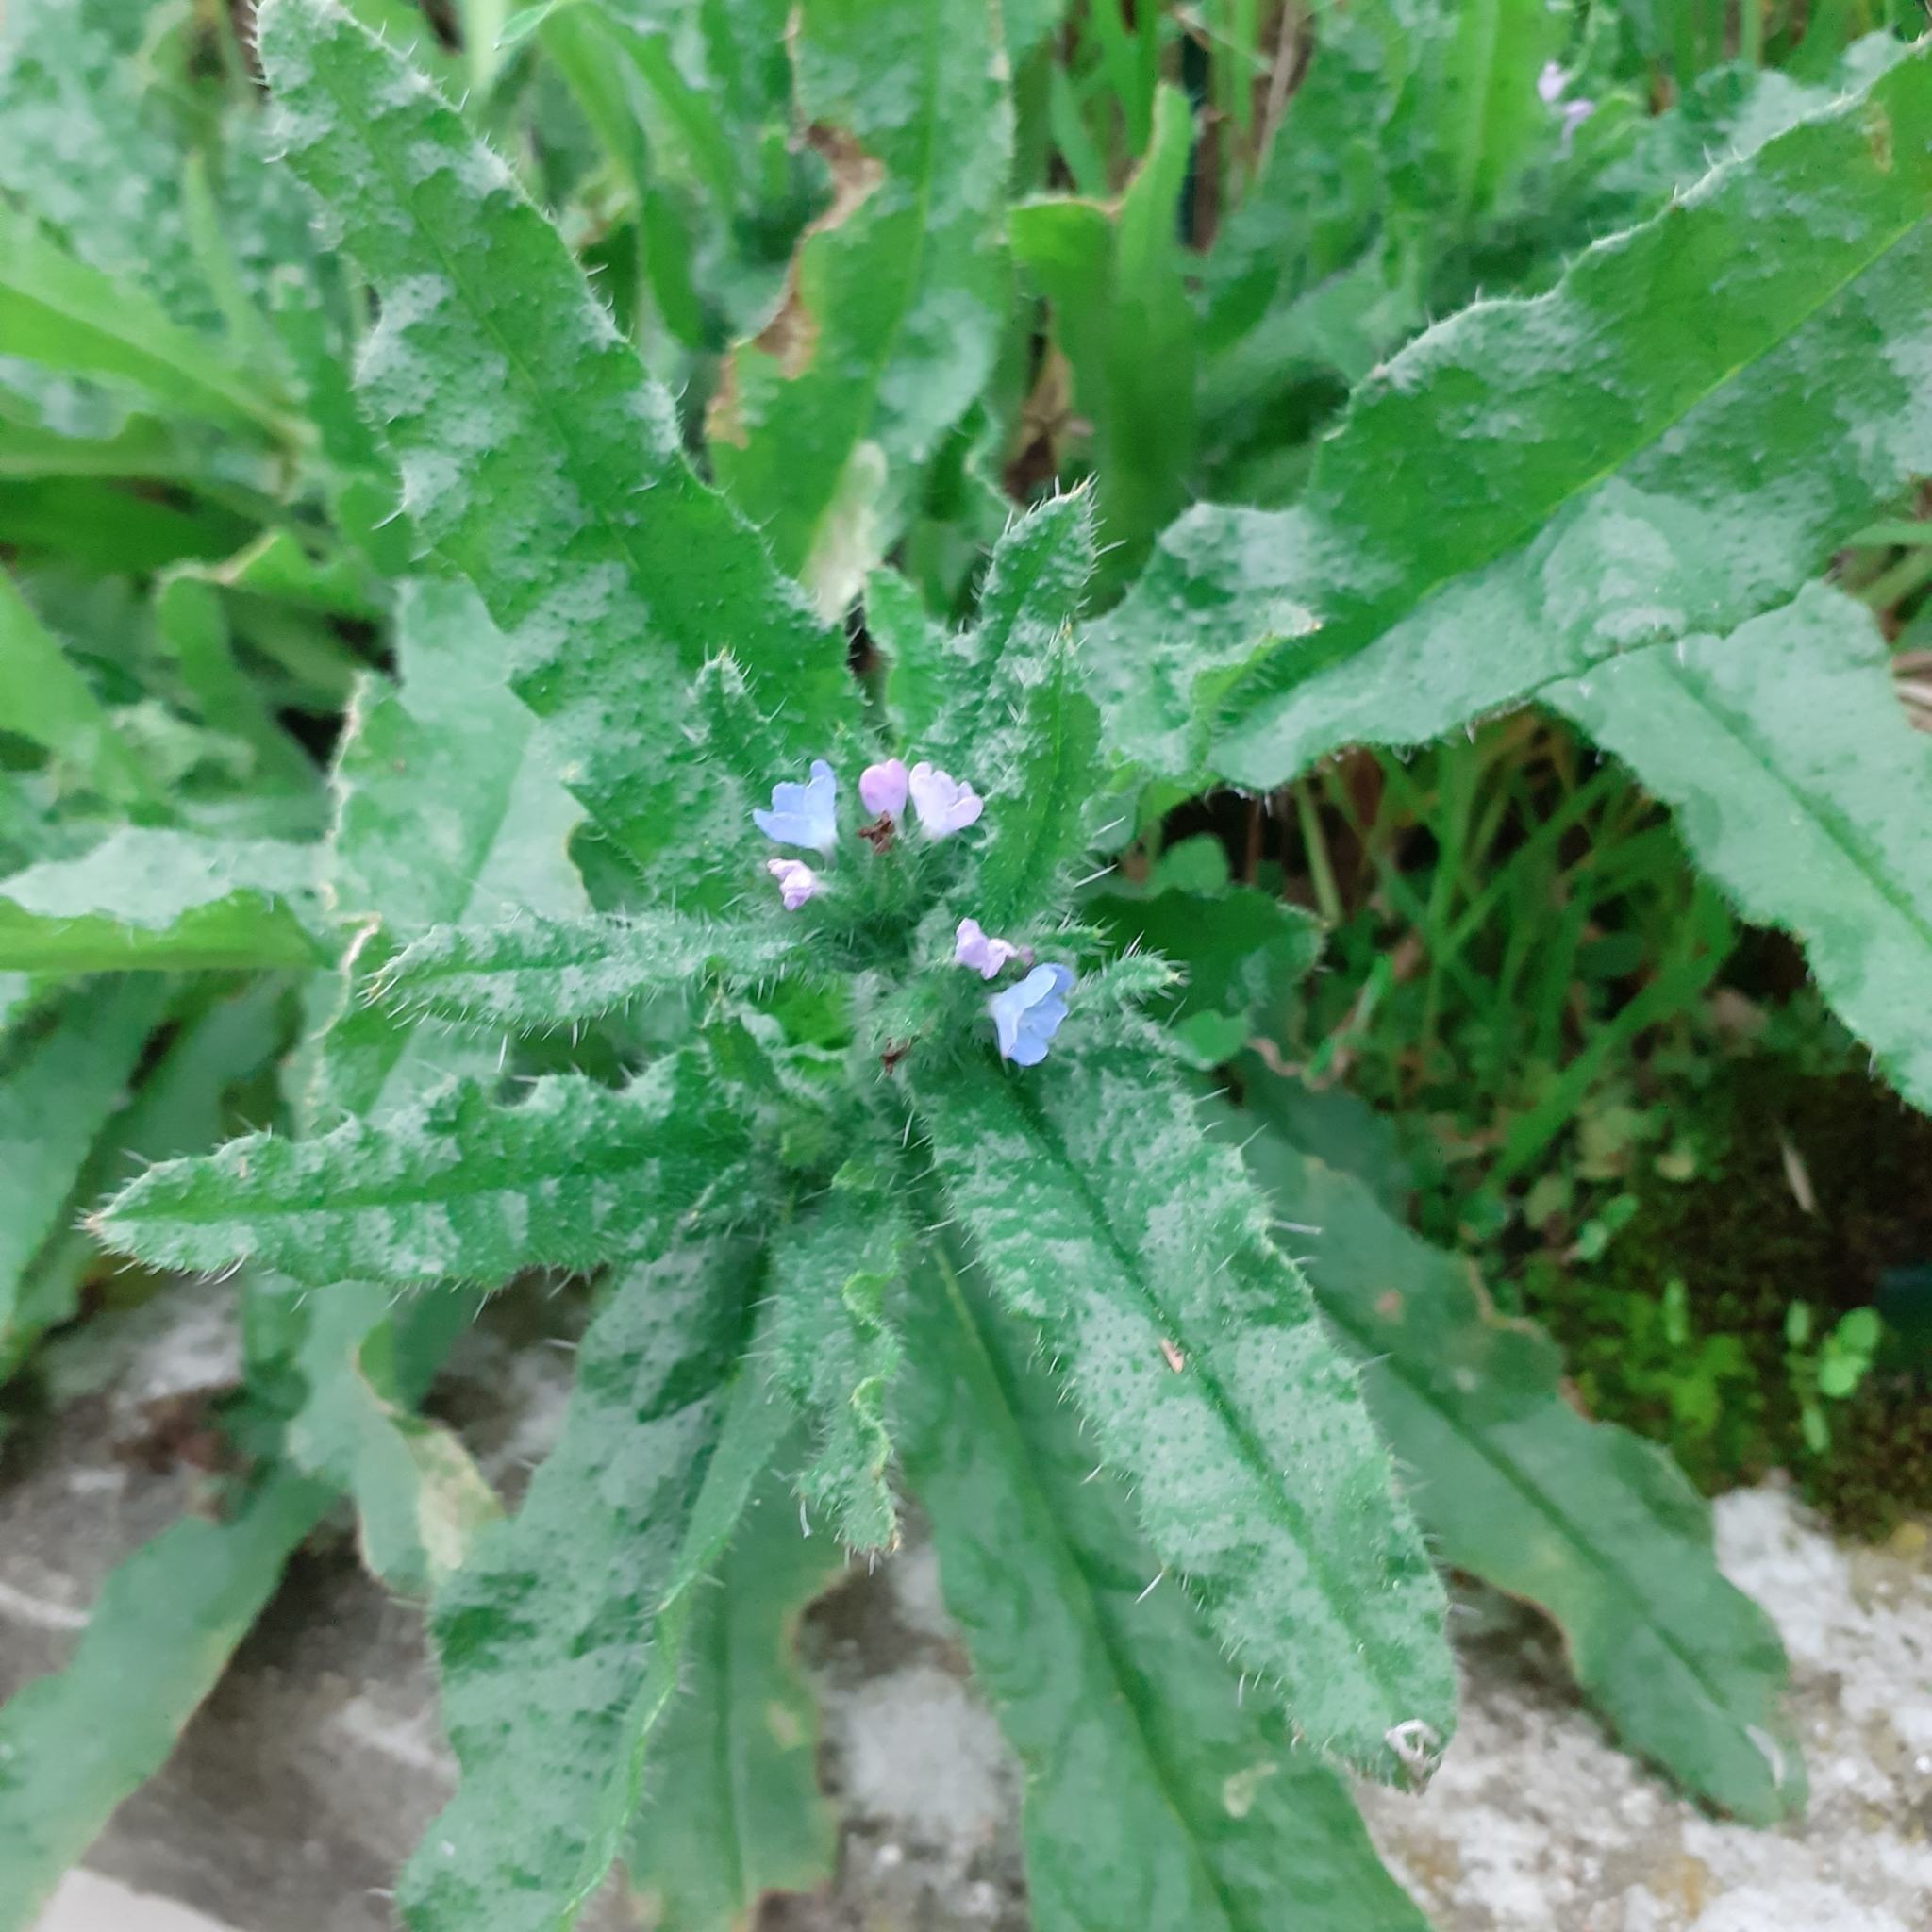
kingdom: Plantae
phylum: Tracheophyta
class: Magnoliopsida
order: Boraginales
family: Boraginaceae
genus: Lycopsis
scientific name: Lycopsis arvensis
